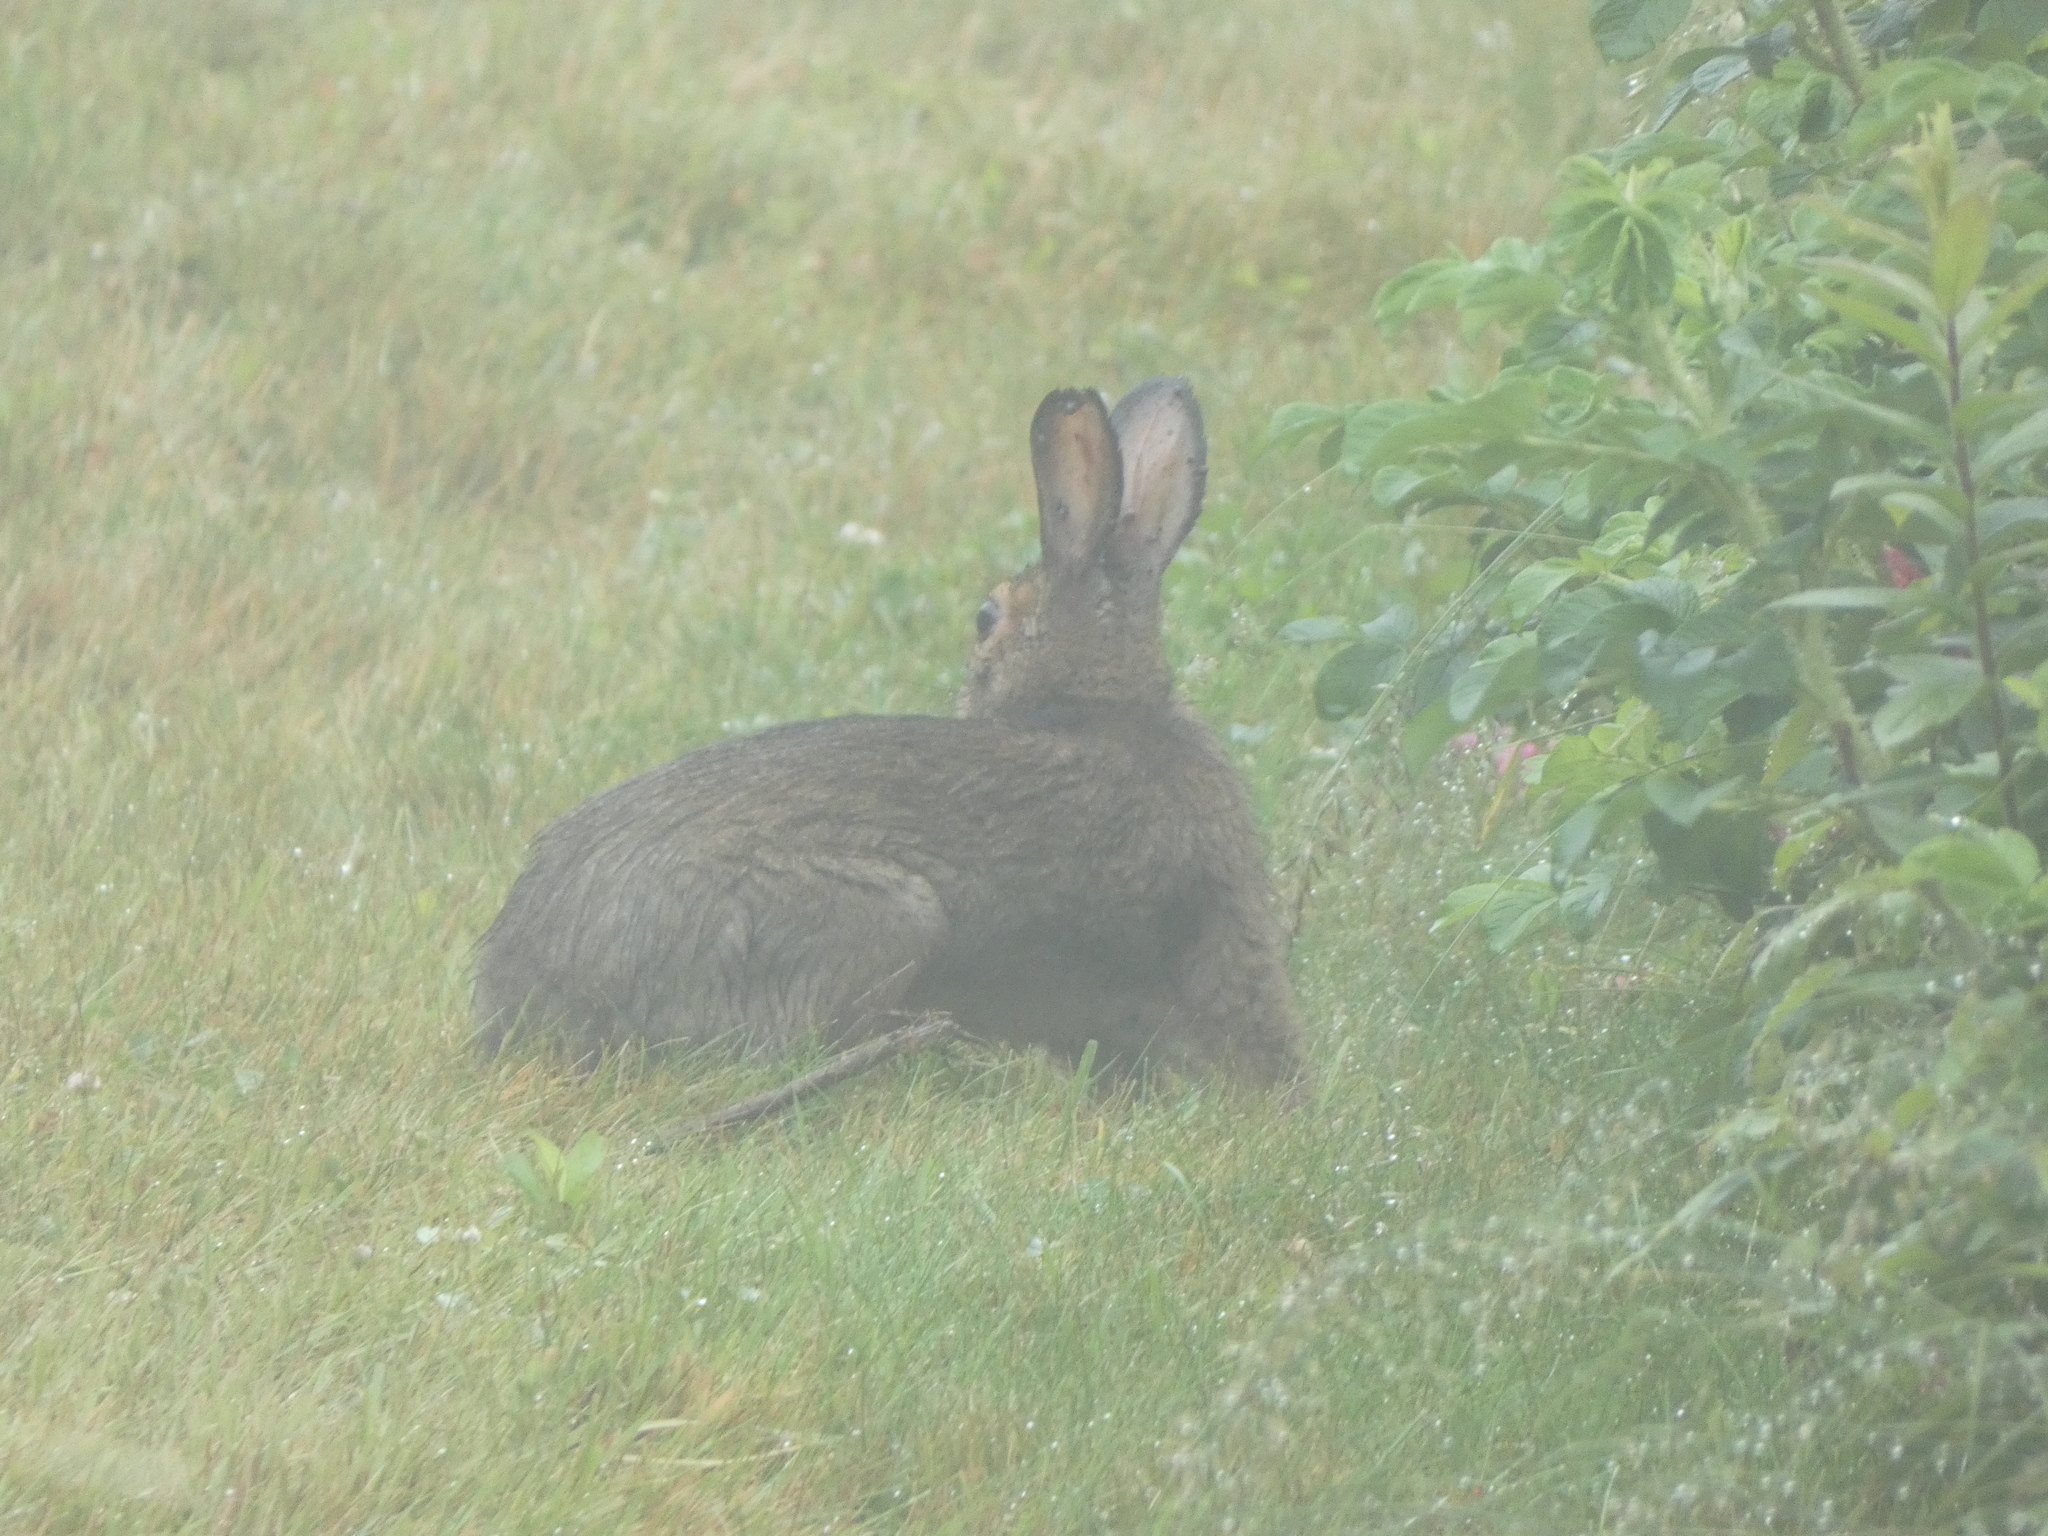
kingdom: Animalia
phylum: Chordata
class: Mammalia
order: Lagomorpha
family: Leporidae
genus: Lepus
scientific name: Lepus americanus
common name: Snowshoe hare
